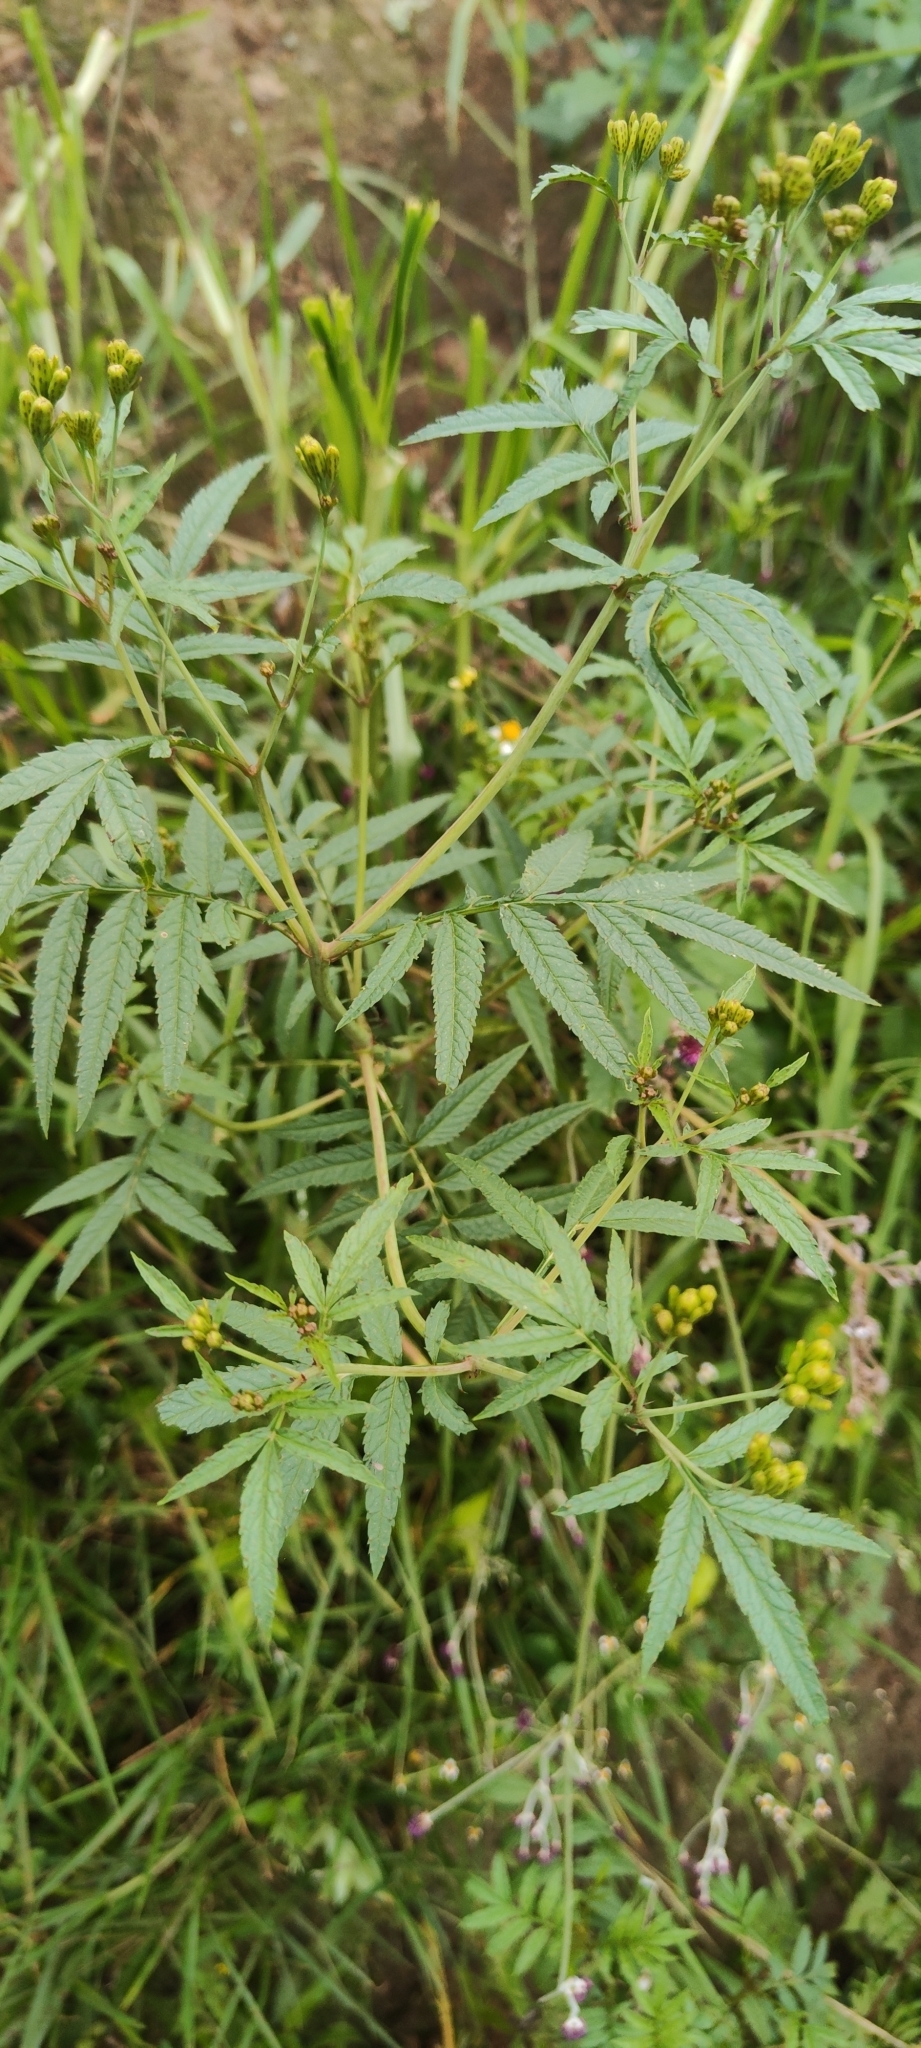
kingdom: Plantae
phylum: Tracheophyta
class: Magnoliopsida
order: Asterales
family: Asteraceae
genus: Tagetes
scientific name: Tagetes minuta
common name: Muster john henry
